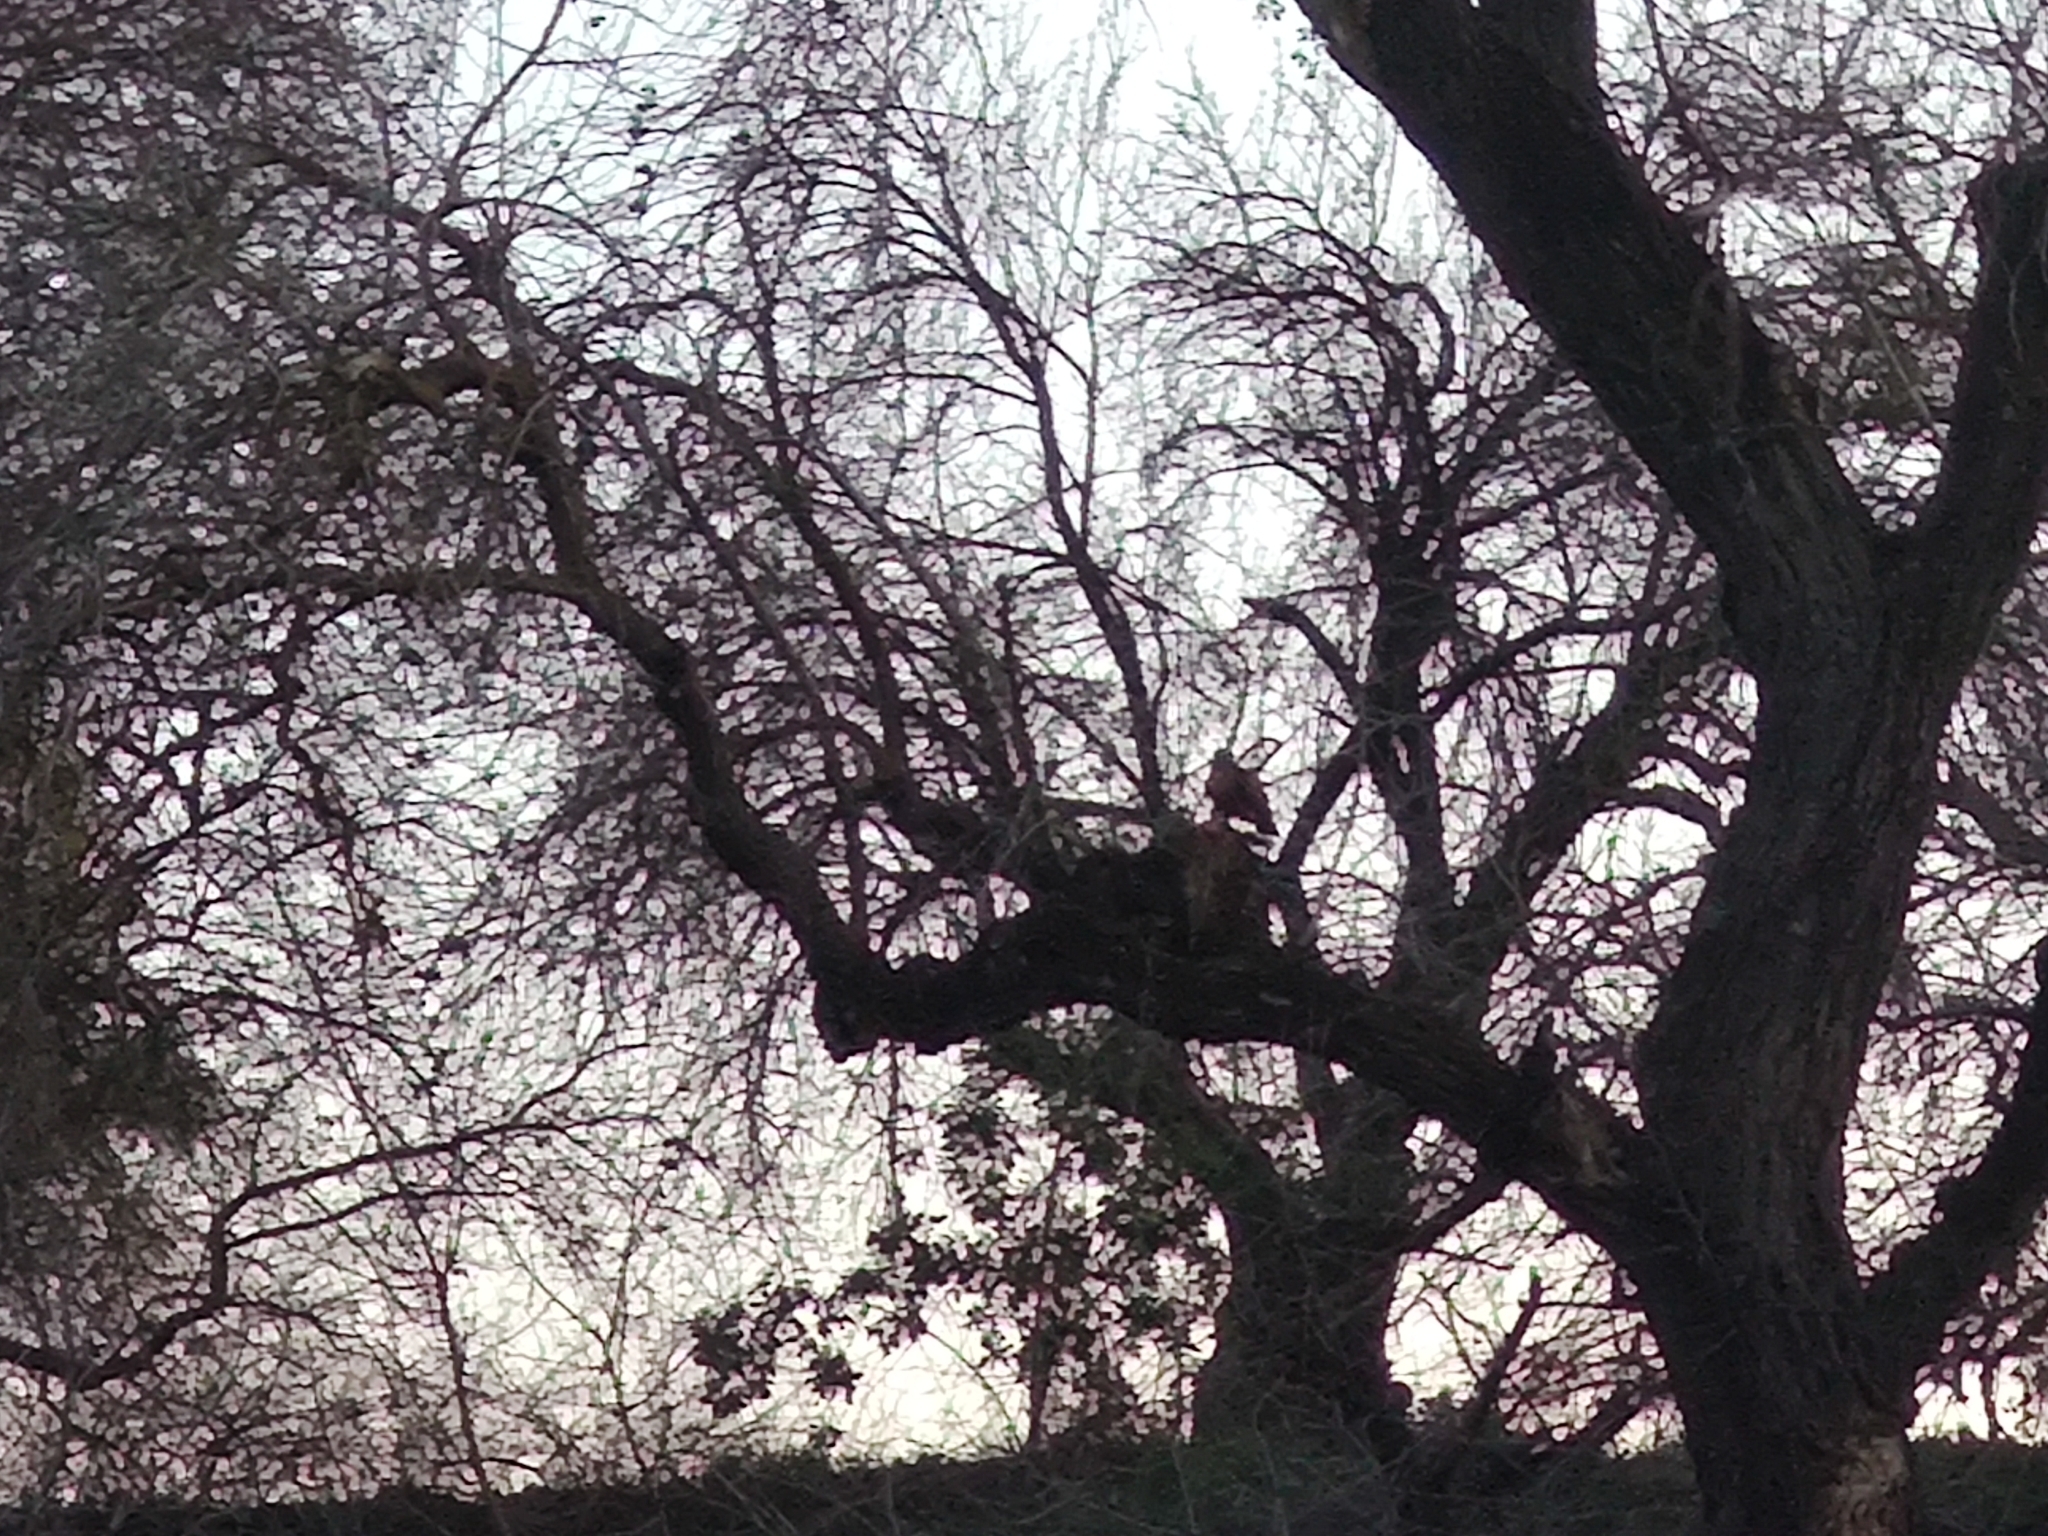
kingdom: Animalia
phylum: Chordata
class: Aves
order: Accipitriformes
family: Accipitridae
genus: Buteo
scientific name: Buteo jamaicensis
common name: Red-tailed hawk
